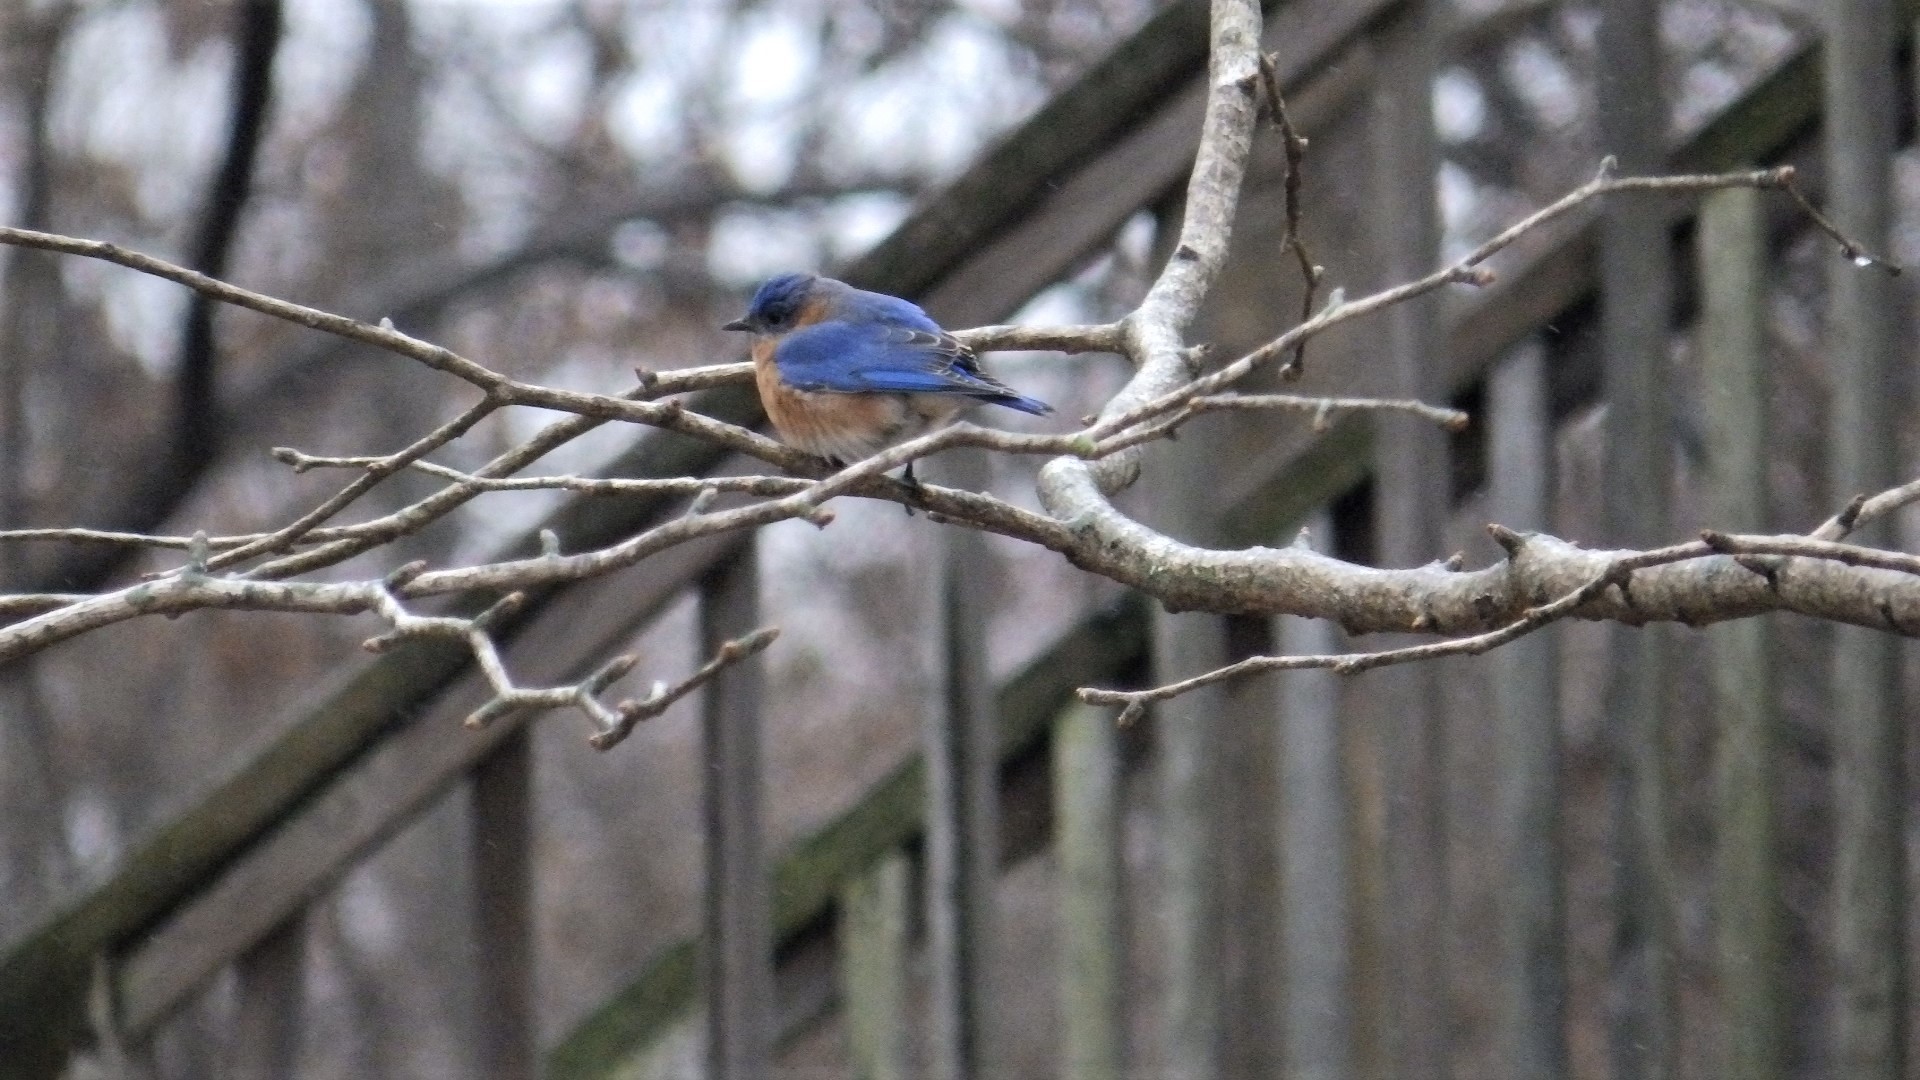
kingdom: Animalia
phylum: Chordata
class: Aves
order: Passeriformes
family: Turdidae
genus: Sialia
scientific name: Sialia sialis
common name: Eastern bluebird
